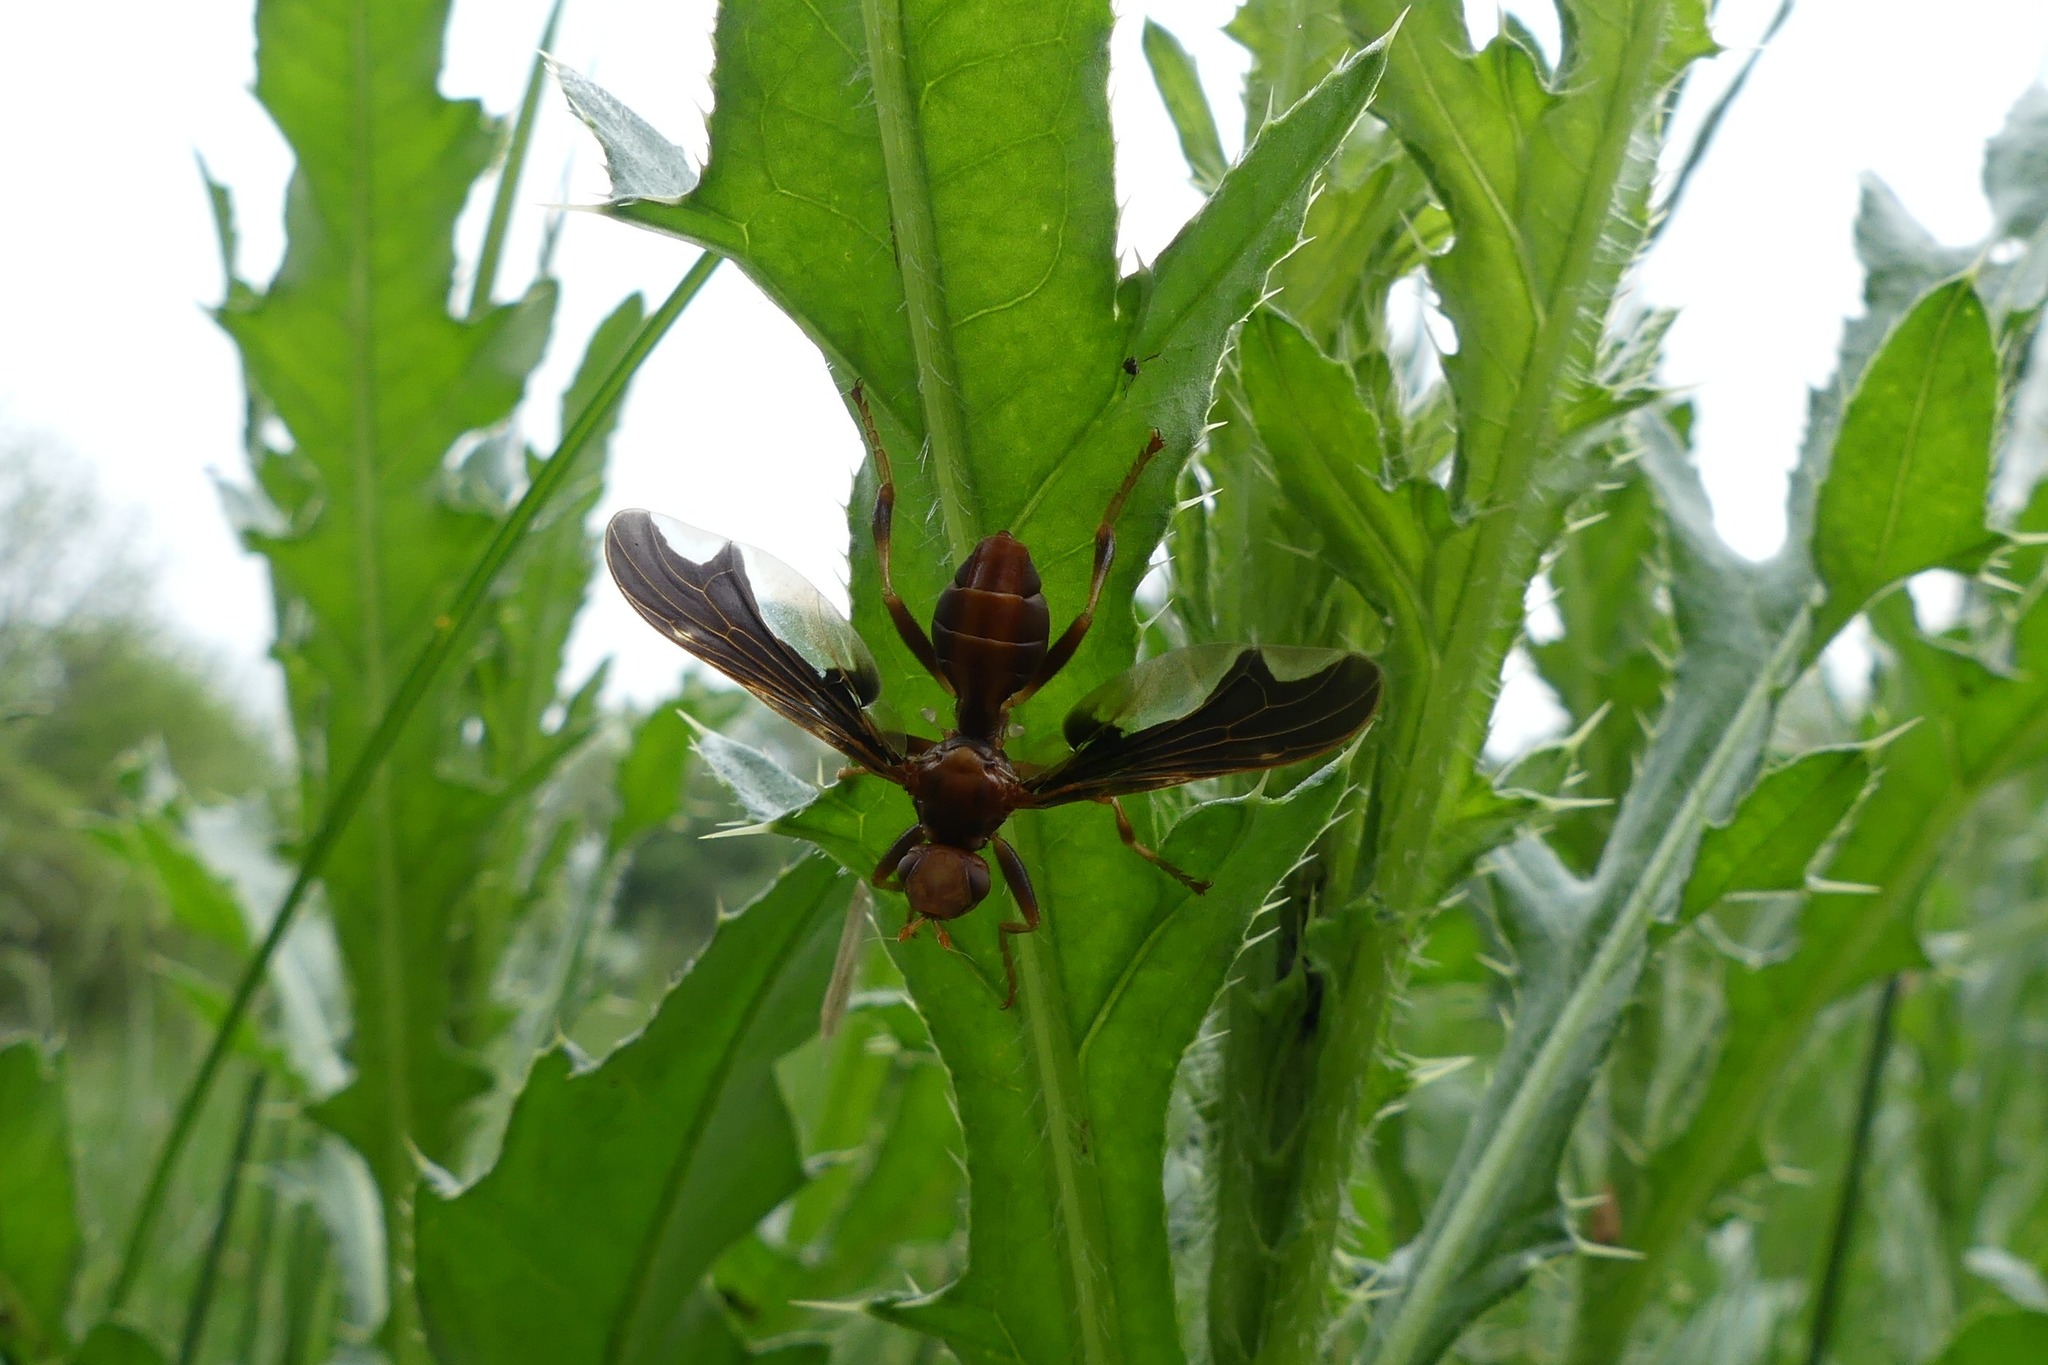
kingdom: Animalia
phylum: Arthropoda
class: Insecta
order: Diptera
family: Pyrgotidae
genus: Pyrgota
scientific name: Pyrgota undata
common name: Waved light fly
